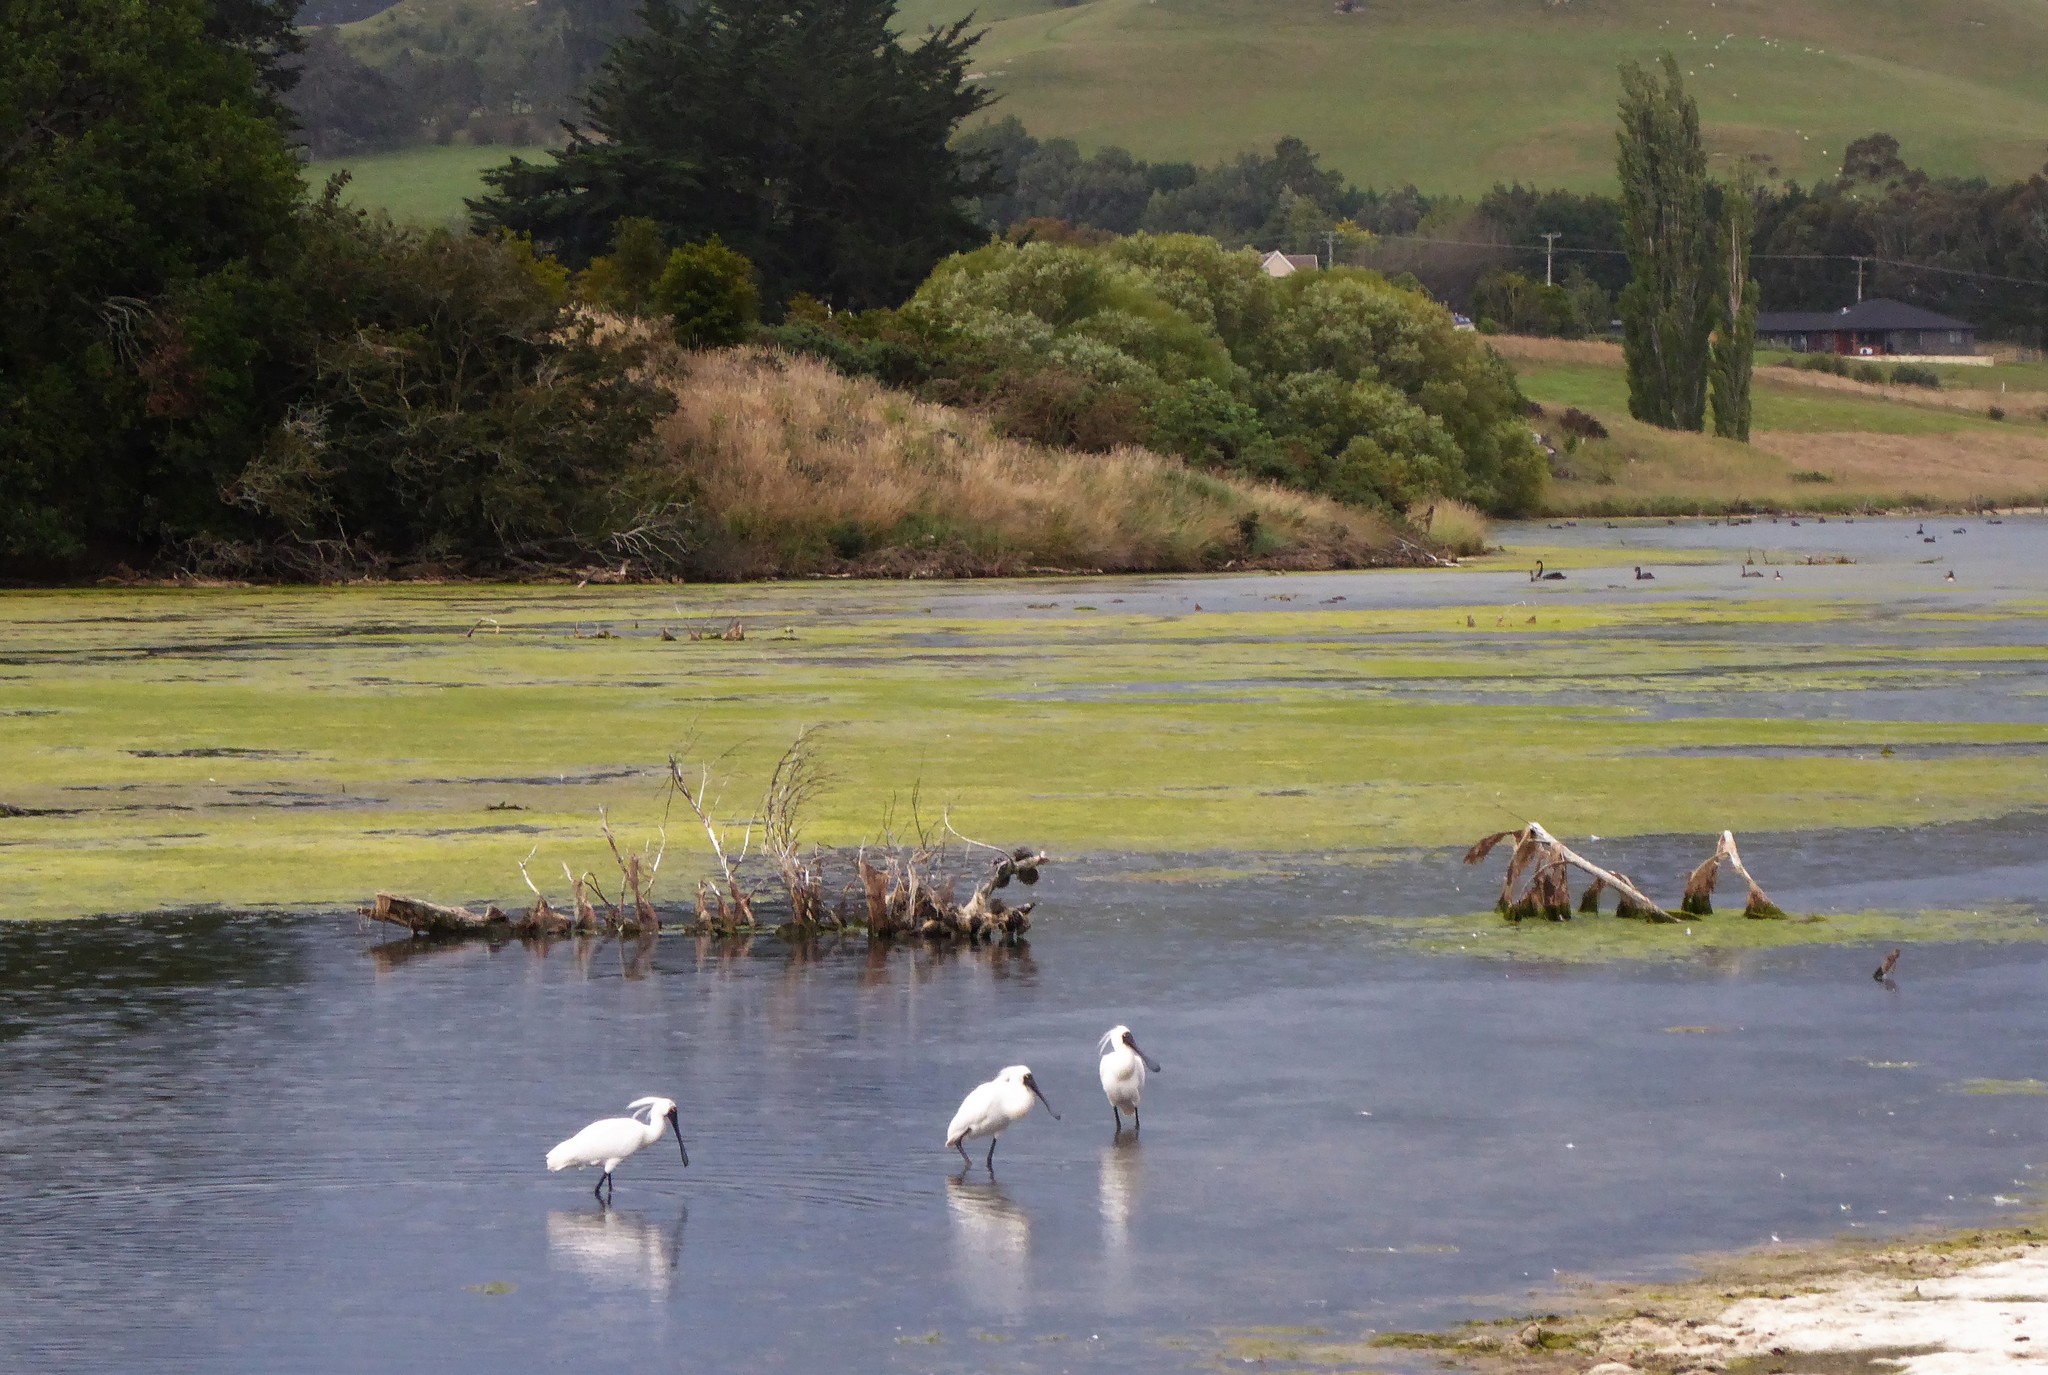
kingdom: Animalia
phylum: Chordata
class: Aves
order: Pelecaniformes
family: Threskiornithidae
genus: Platalea
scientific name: Platalea regia
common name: Royal spoonbill
